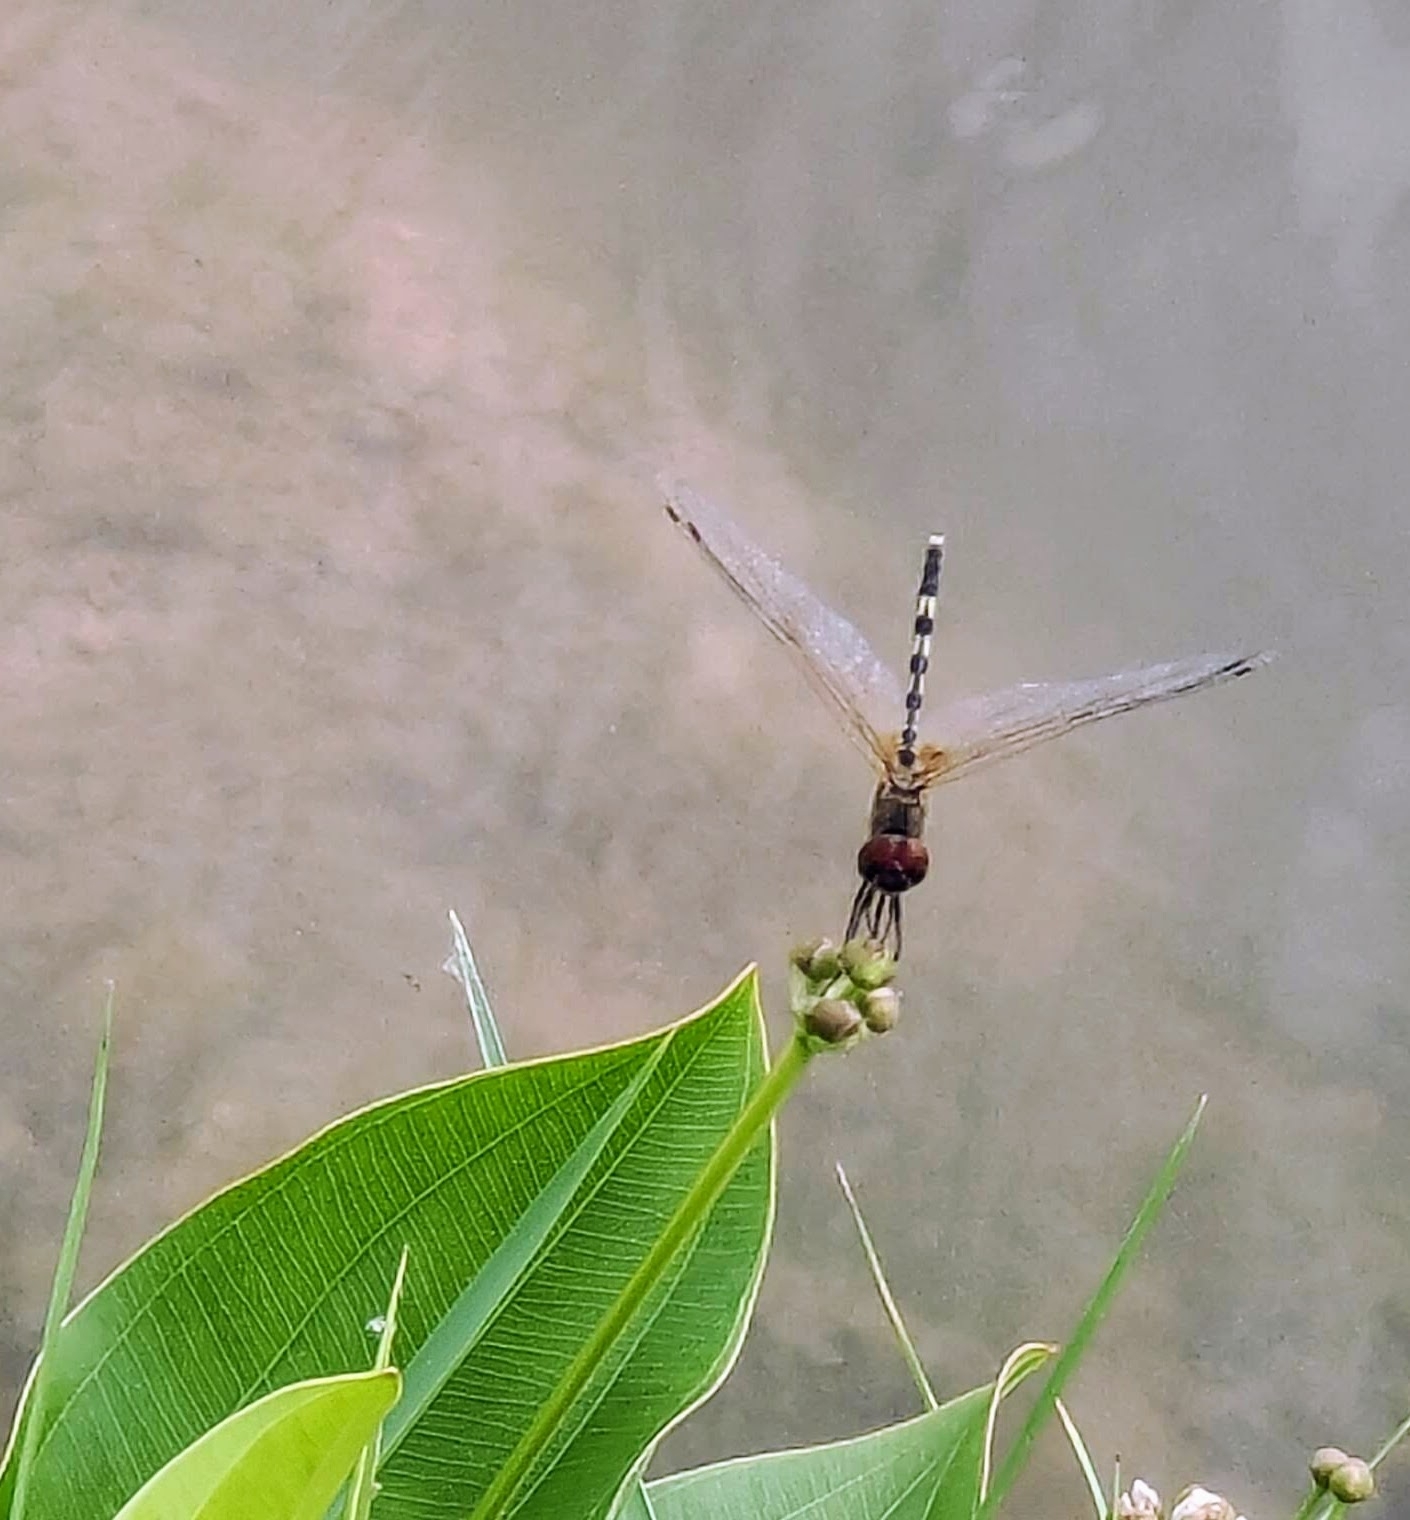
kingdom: Animalia
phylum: Arthropoda
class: Insecta
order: Odonata
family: Libellulidae
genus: Trithemis
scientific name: Trithemis pallidinervis
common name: Dancing dropwing
